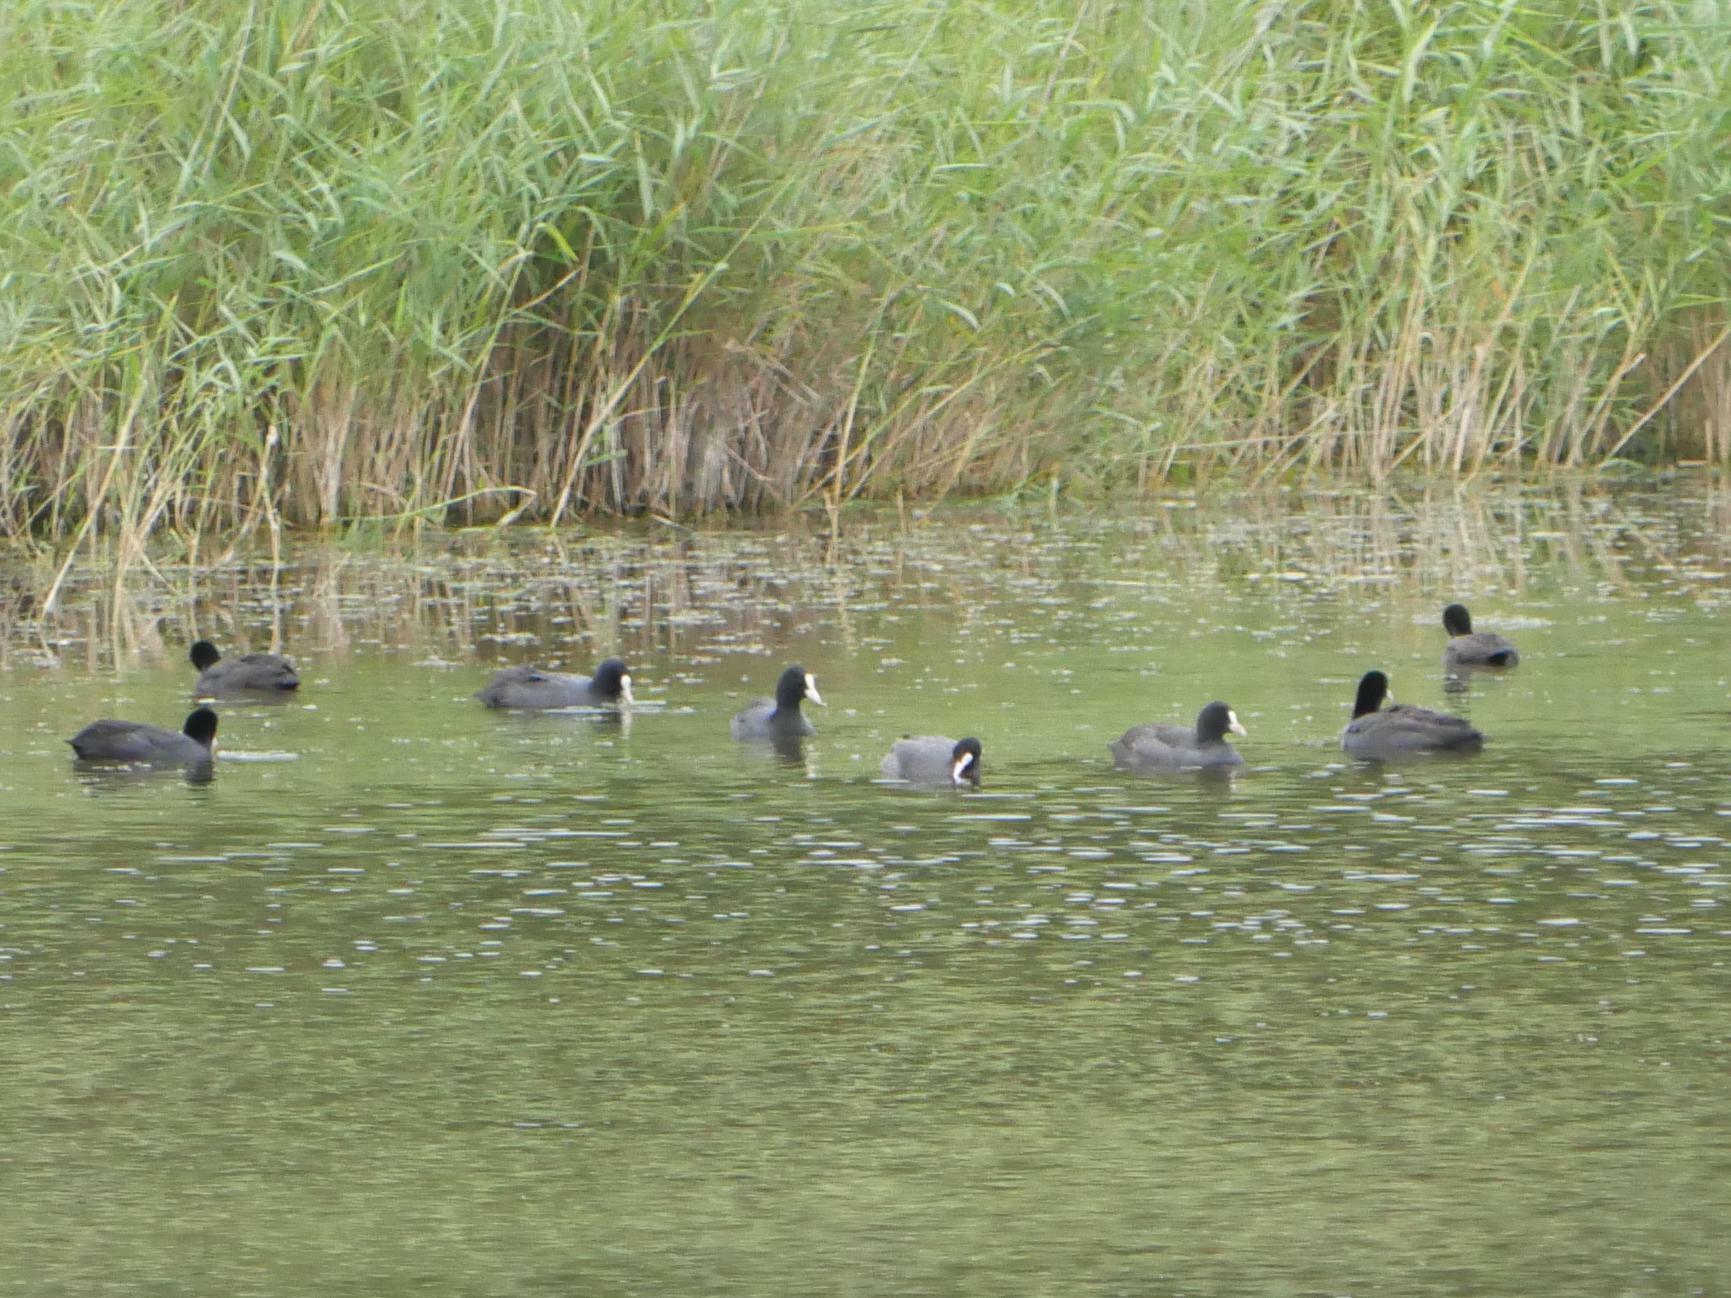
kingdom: Animalia
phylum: Chordata
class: Aves
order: Gruiformes
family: Rallidae
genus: Fulica
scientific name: Fulica atra
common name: Eurasian coot
